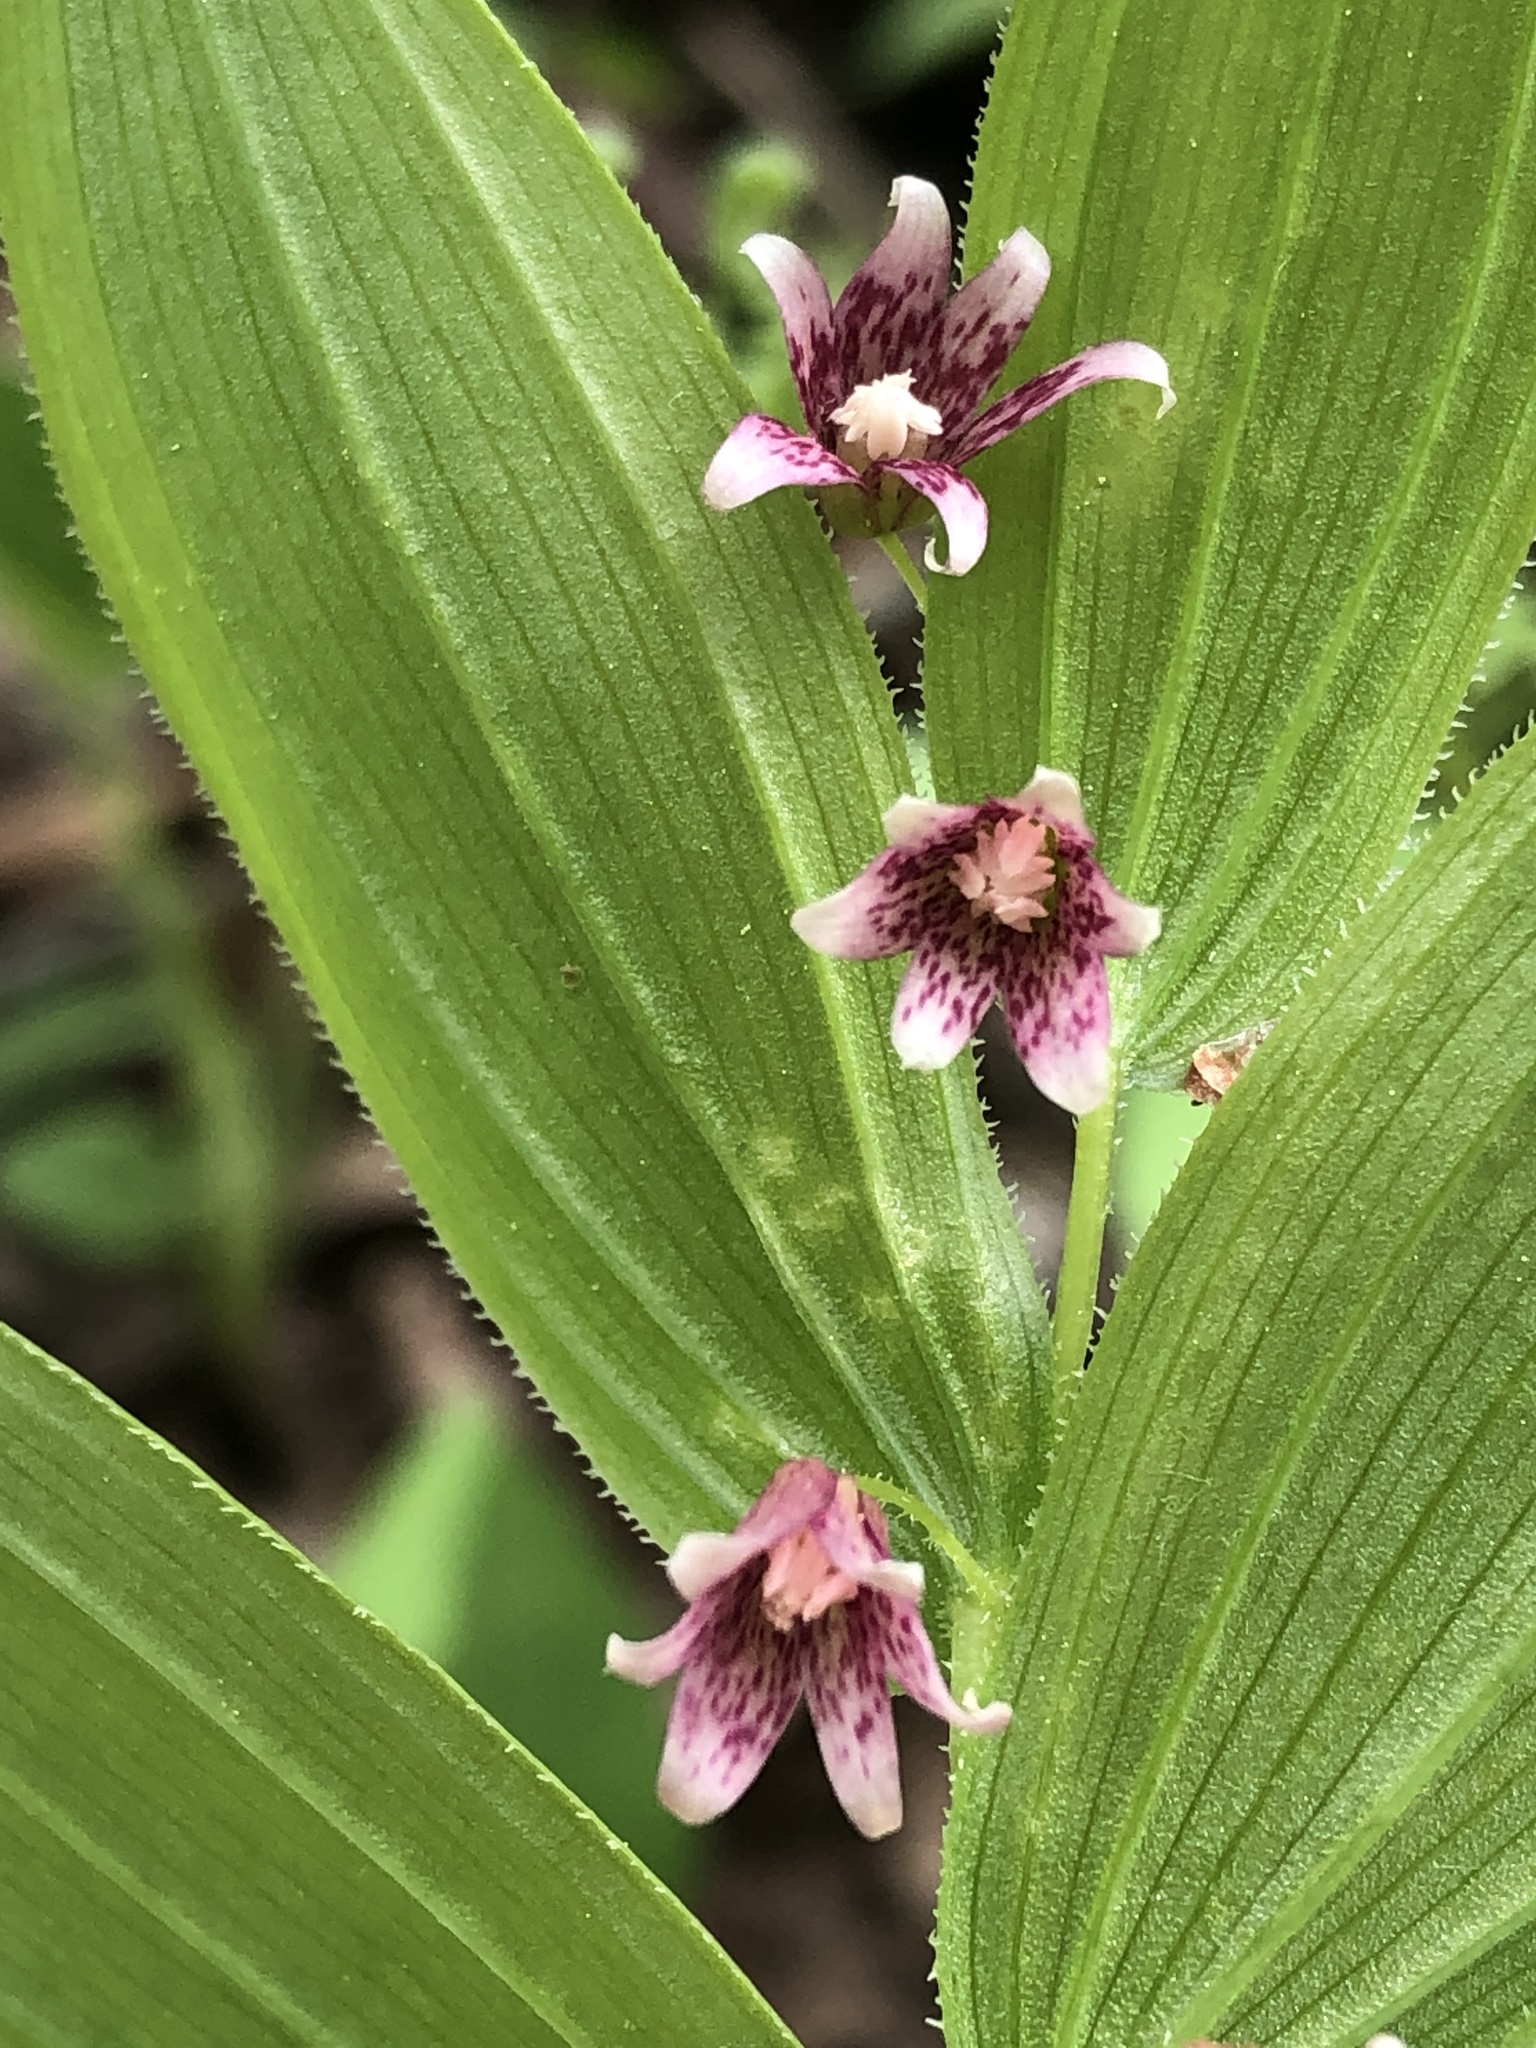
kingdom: Plantae
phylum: Tracheophyta
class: Liliopsida
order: Liliales
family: Liliaceae
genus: Streptopus
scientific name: Streptopus lanceolatus
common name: Rose mandarin
